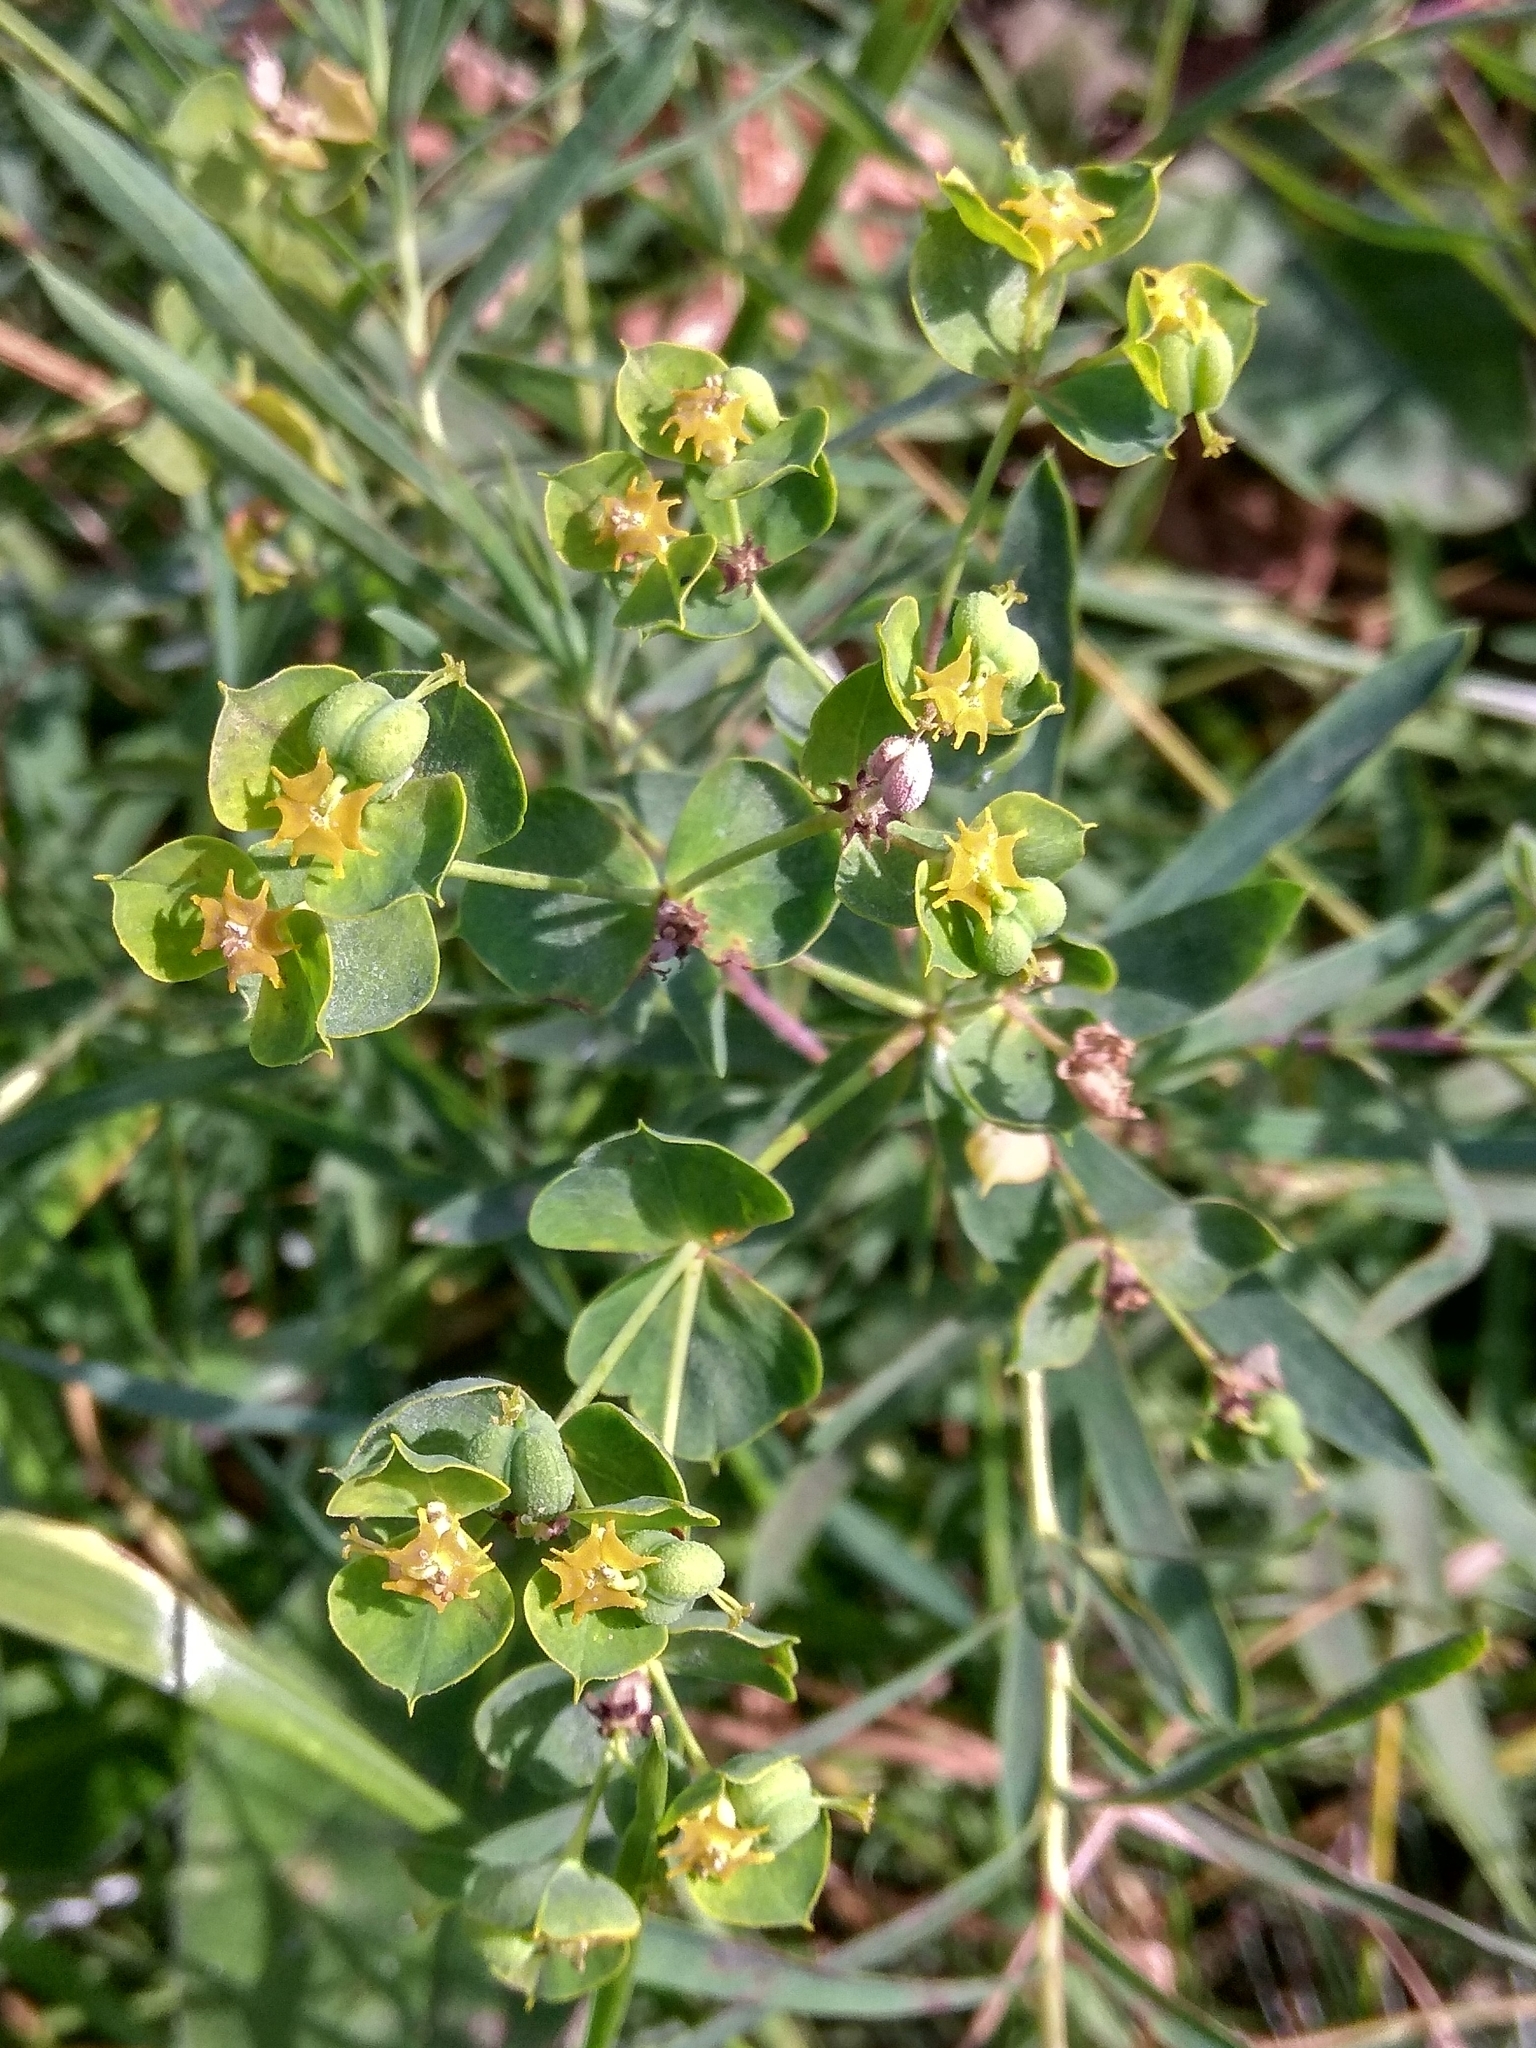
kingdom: Plantae
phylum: Tracheophyta
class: Magnoliopsida
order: Malpighiales
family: Euphorbiaceae
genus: Euphorbia
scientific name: Euphorbia virgata
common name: Leafy spurge
